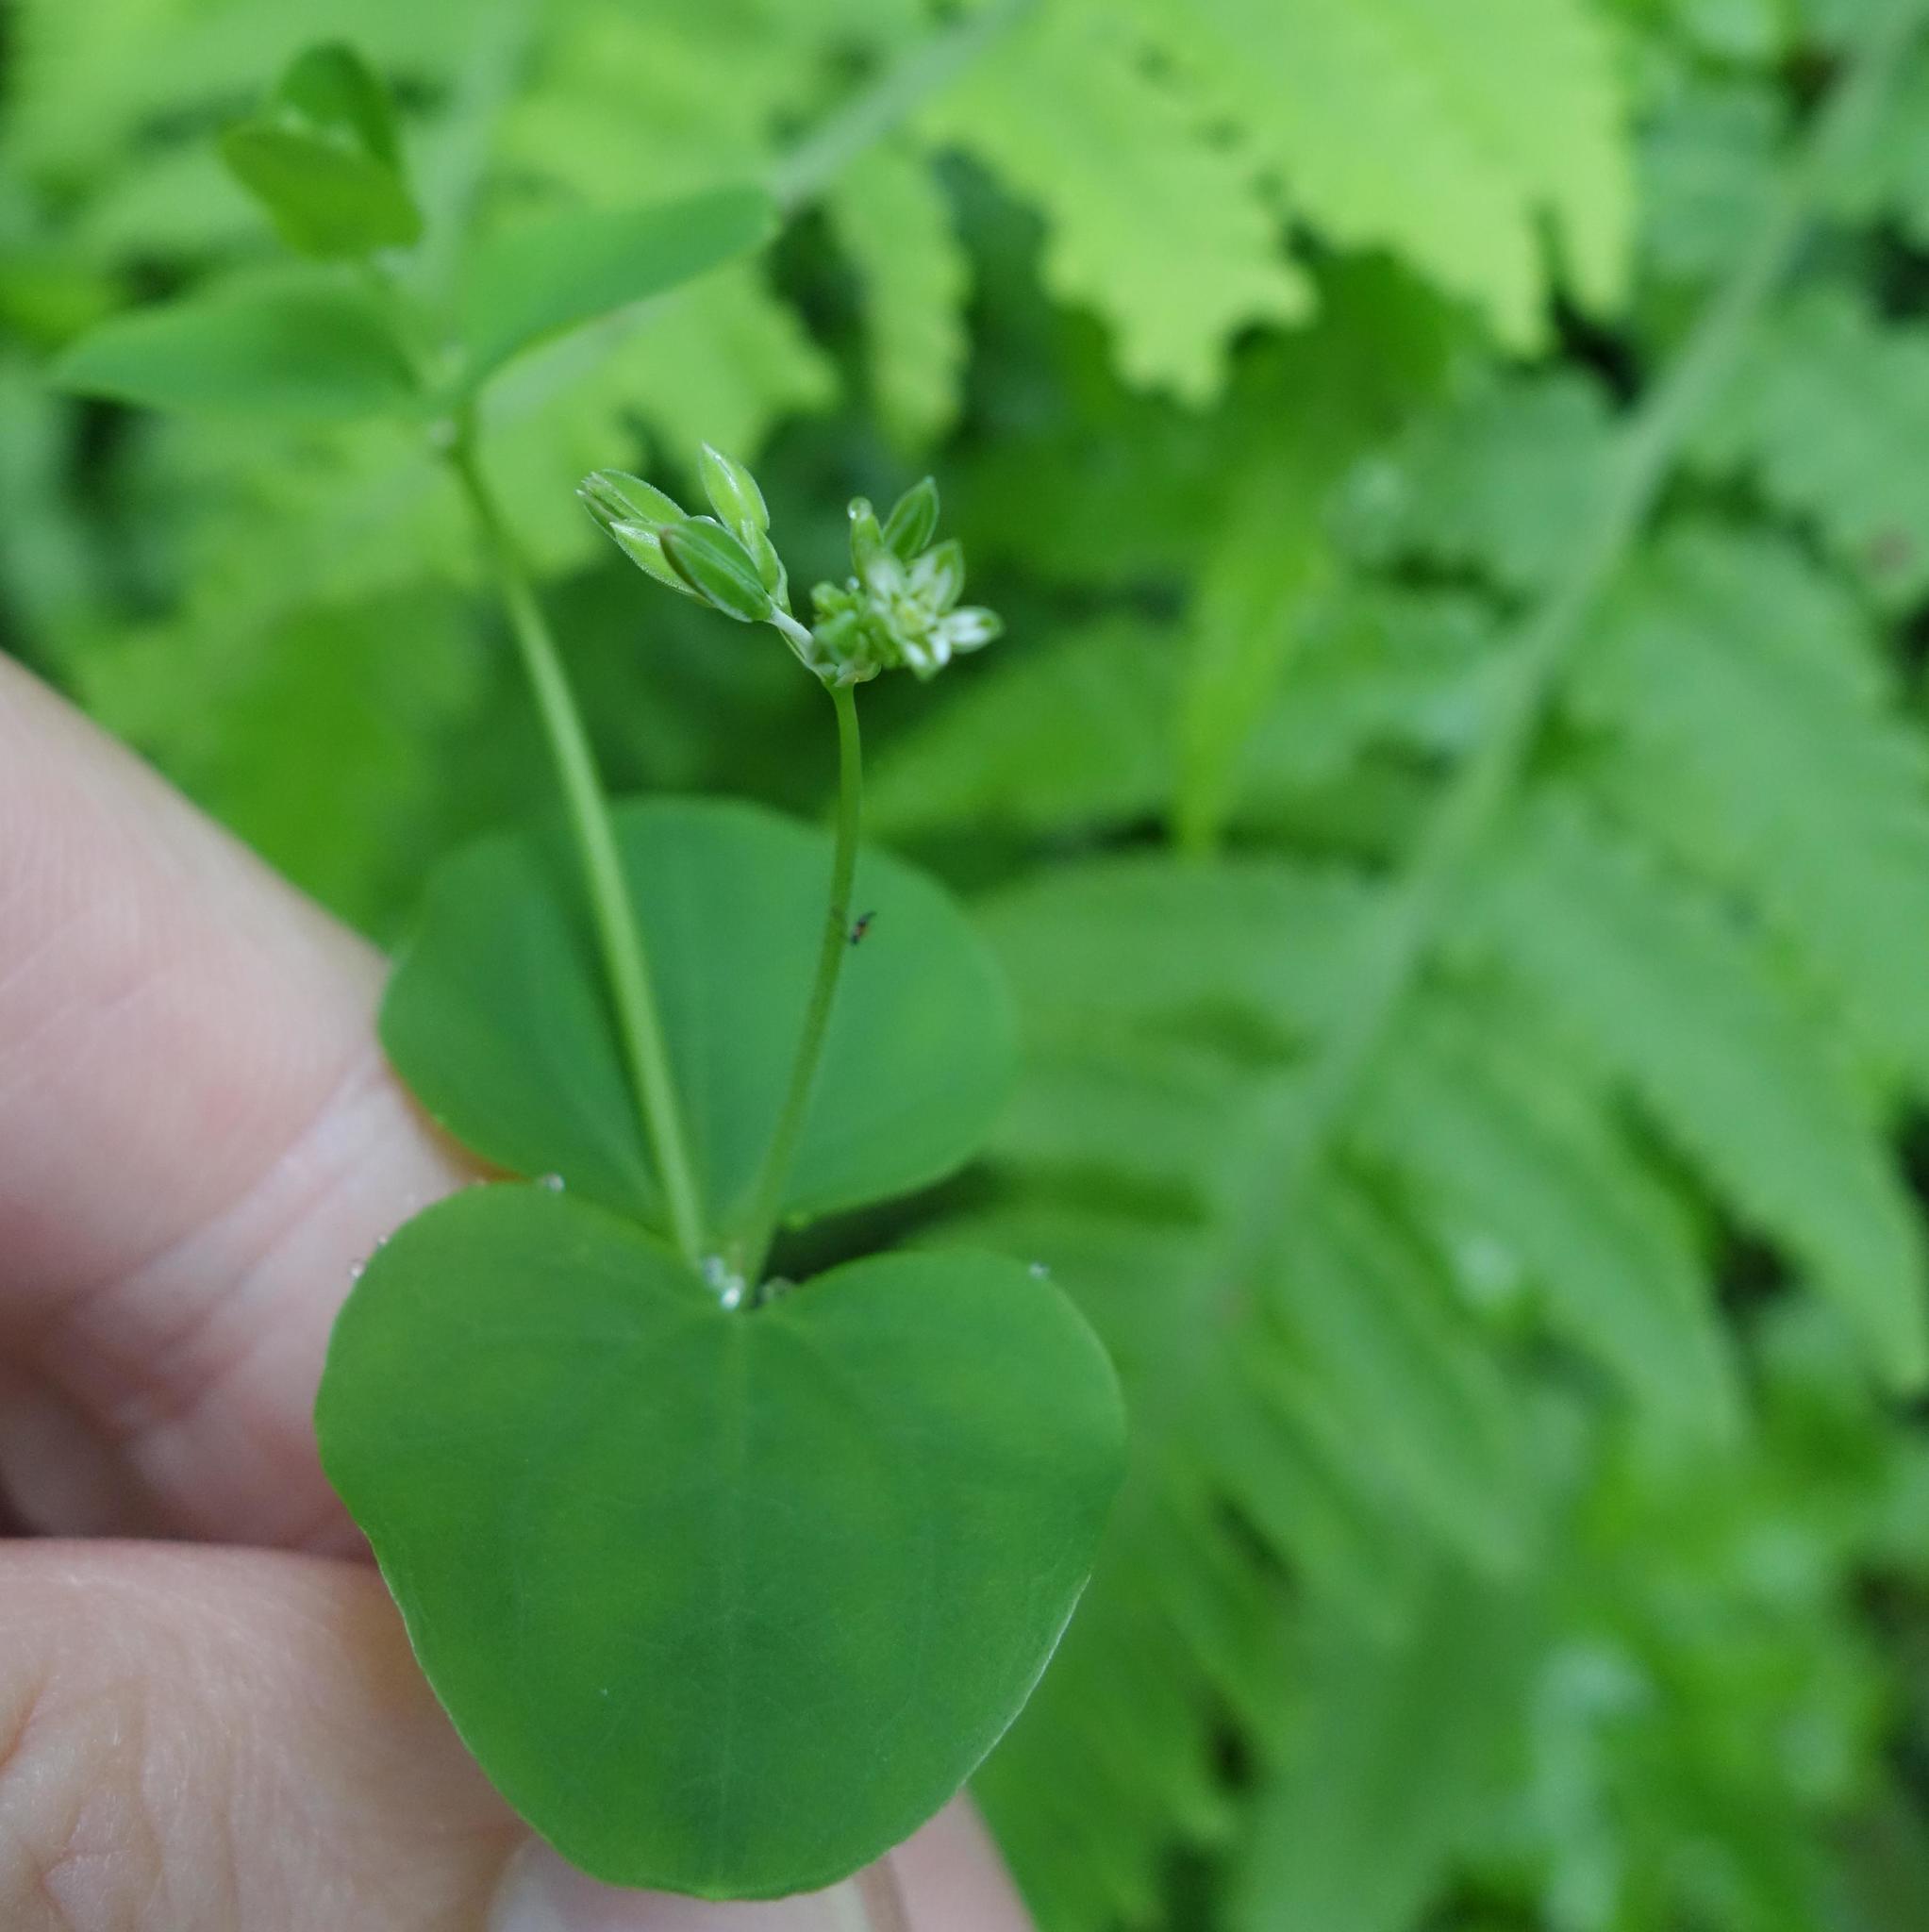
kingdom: Plantae
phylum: Tracheophyta
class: Magnoliopsida
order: Caryophyllales
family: Caryophyllaceae
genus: Drymaria
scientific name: Drymaria cordata
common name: Whitesnow
